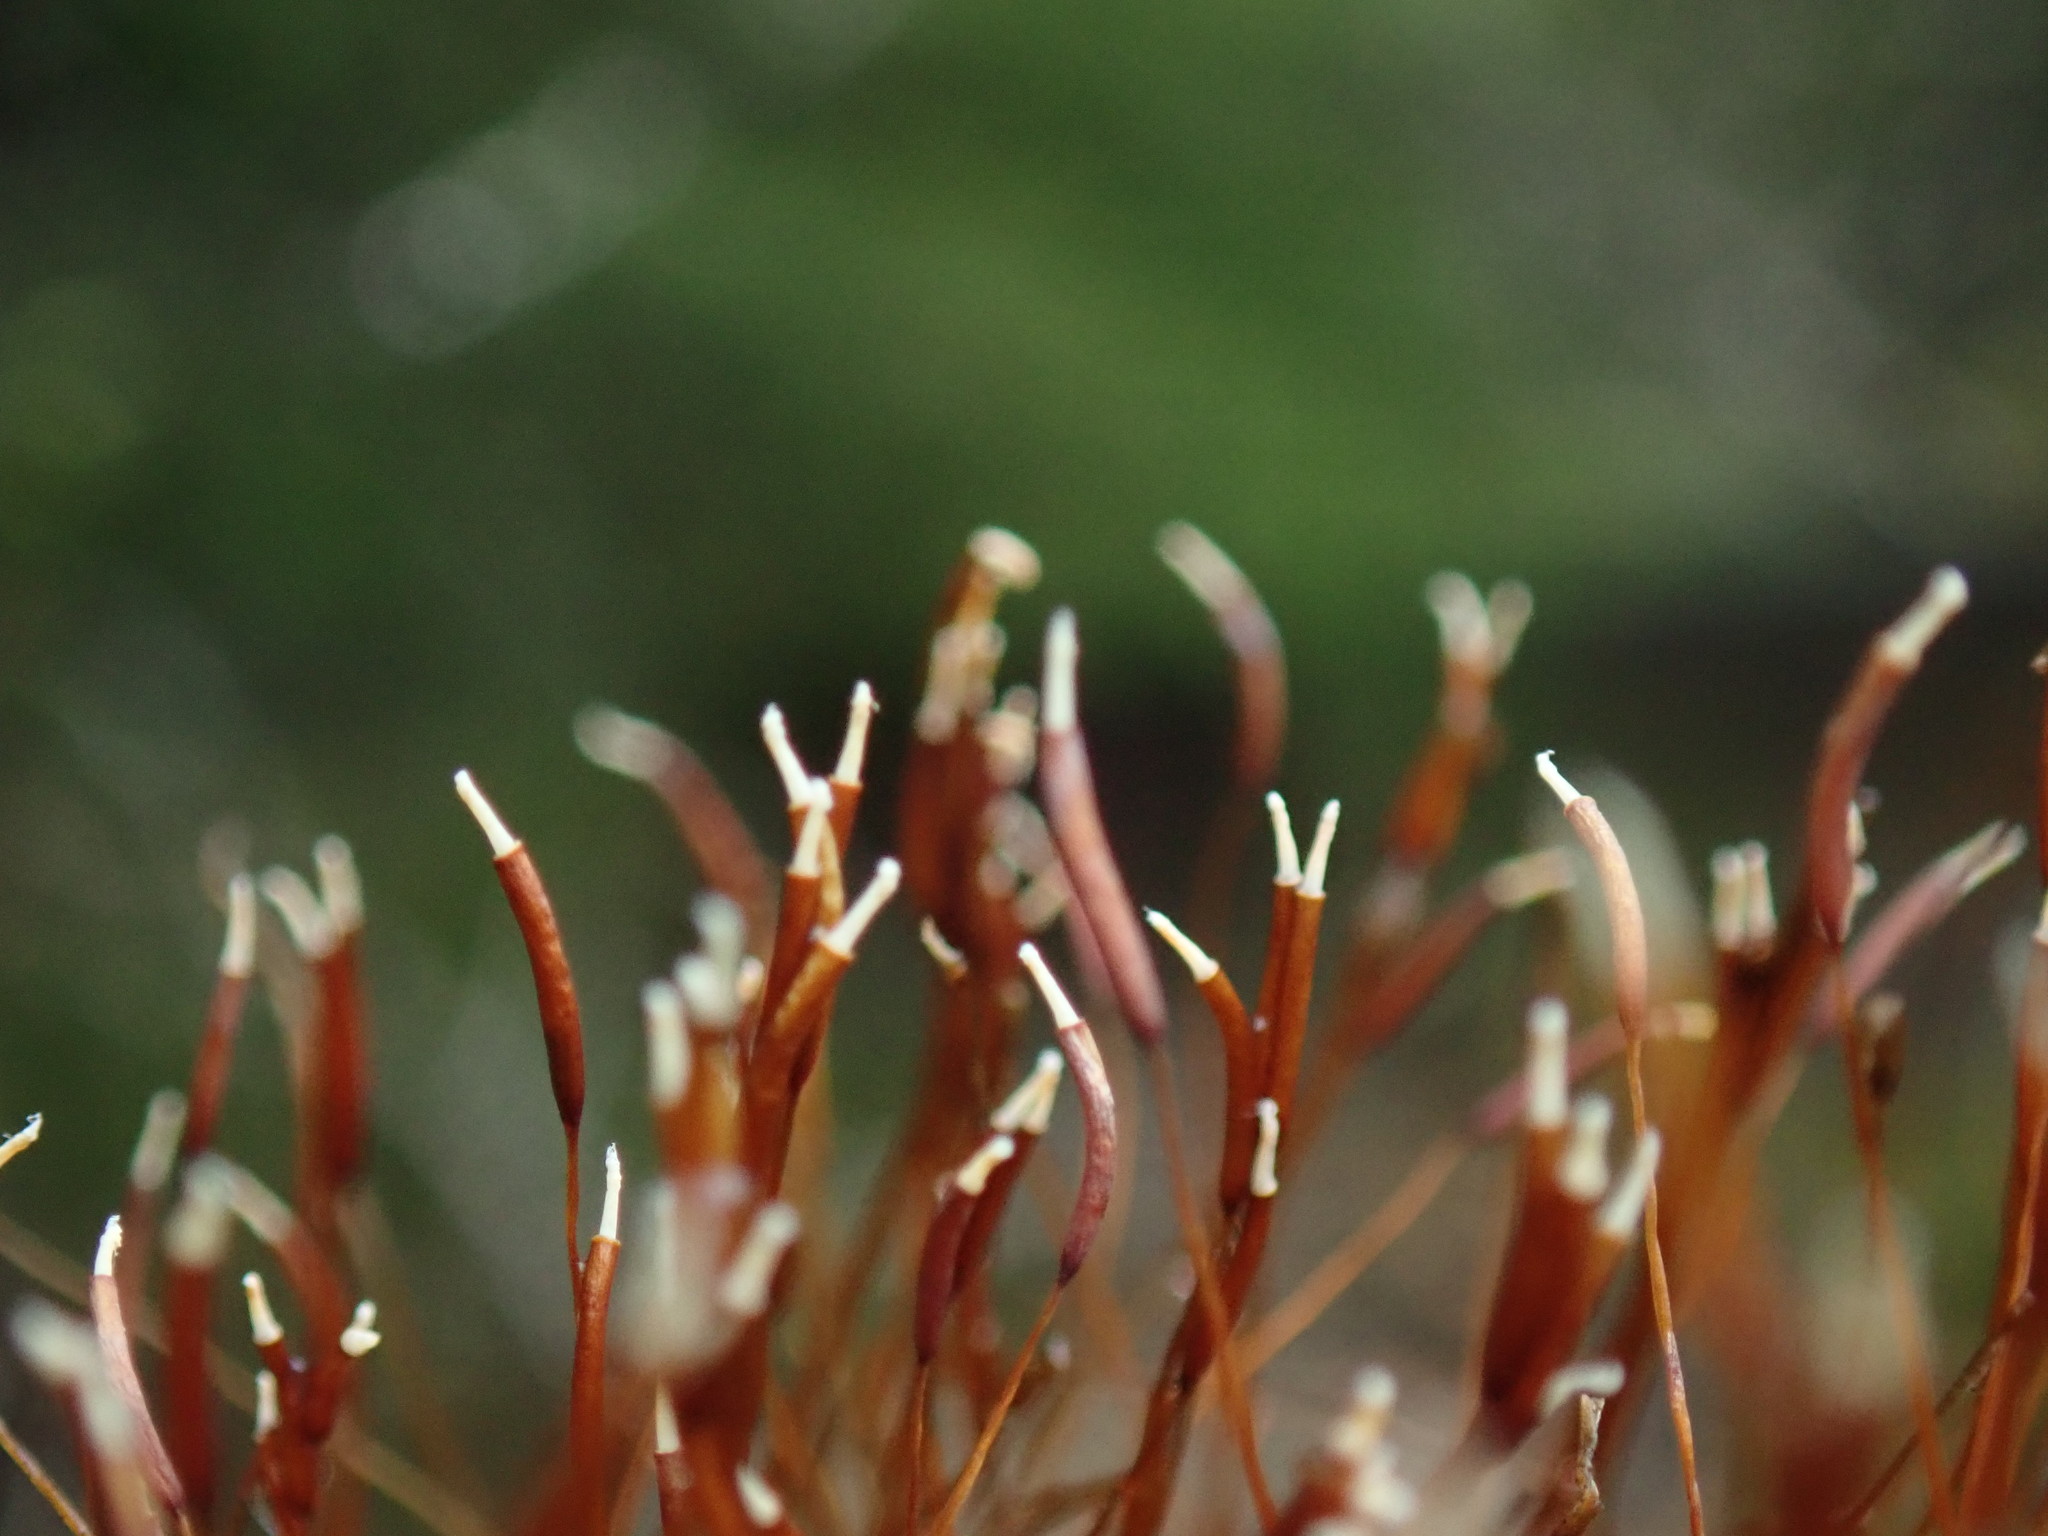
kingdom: Plantae
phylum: Bryophyta
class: Bryopsida
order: Pottiales
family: Pottiaceae
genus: Syntrichia
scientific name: Syntrichia princeps
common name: Brown screw-moss
